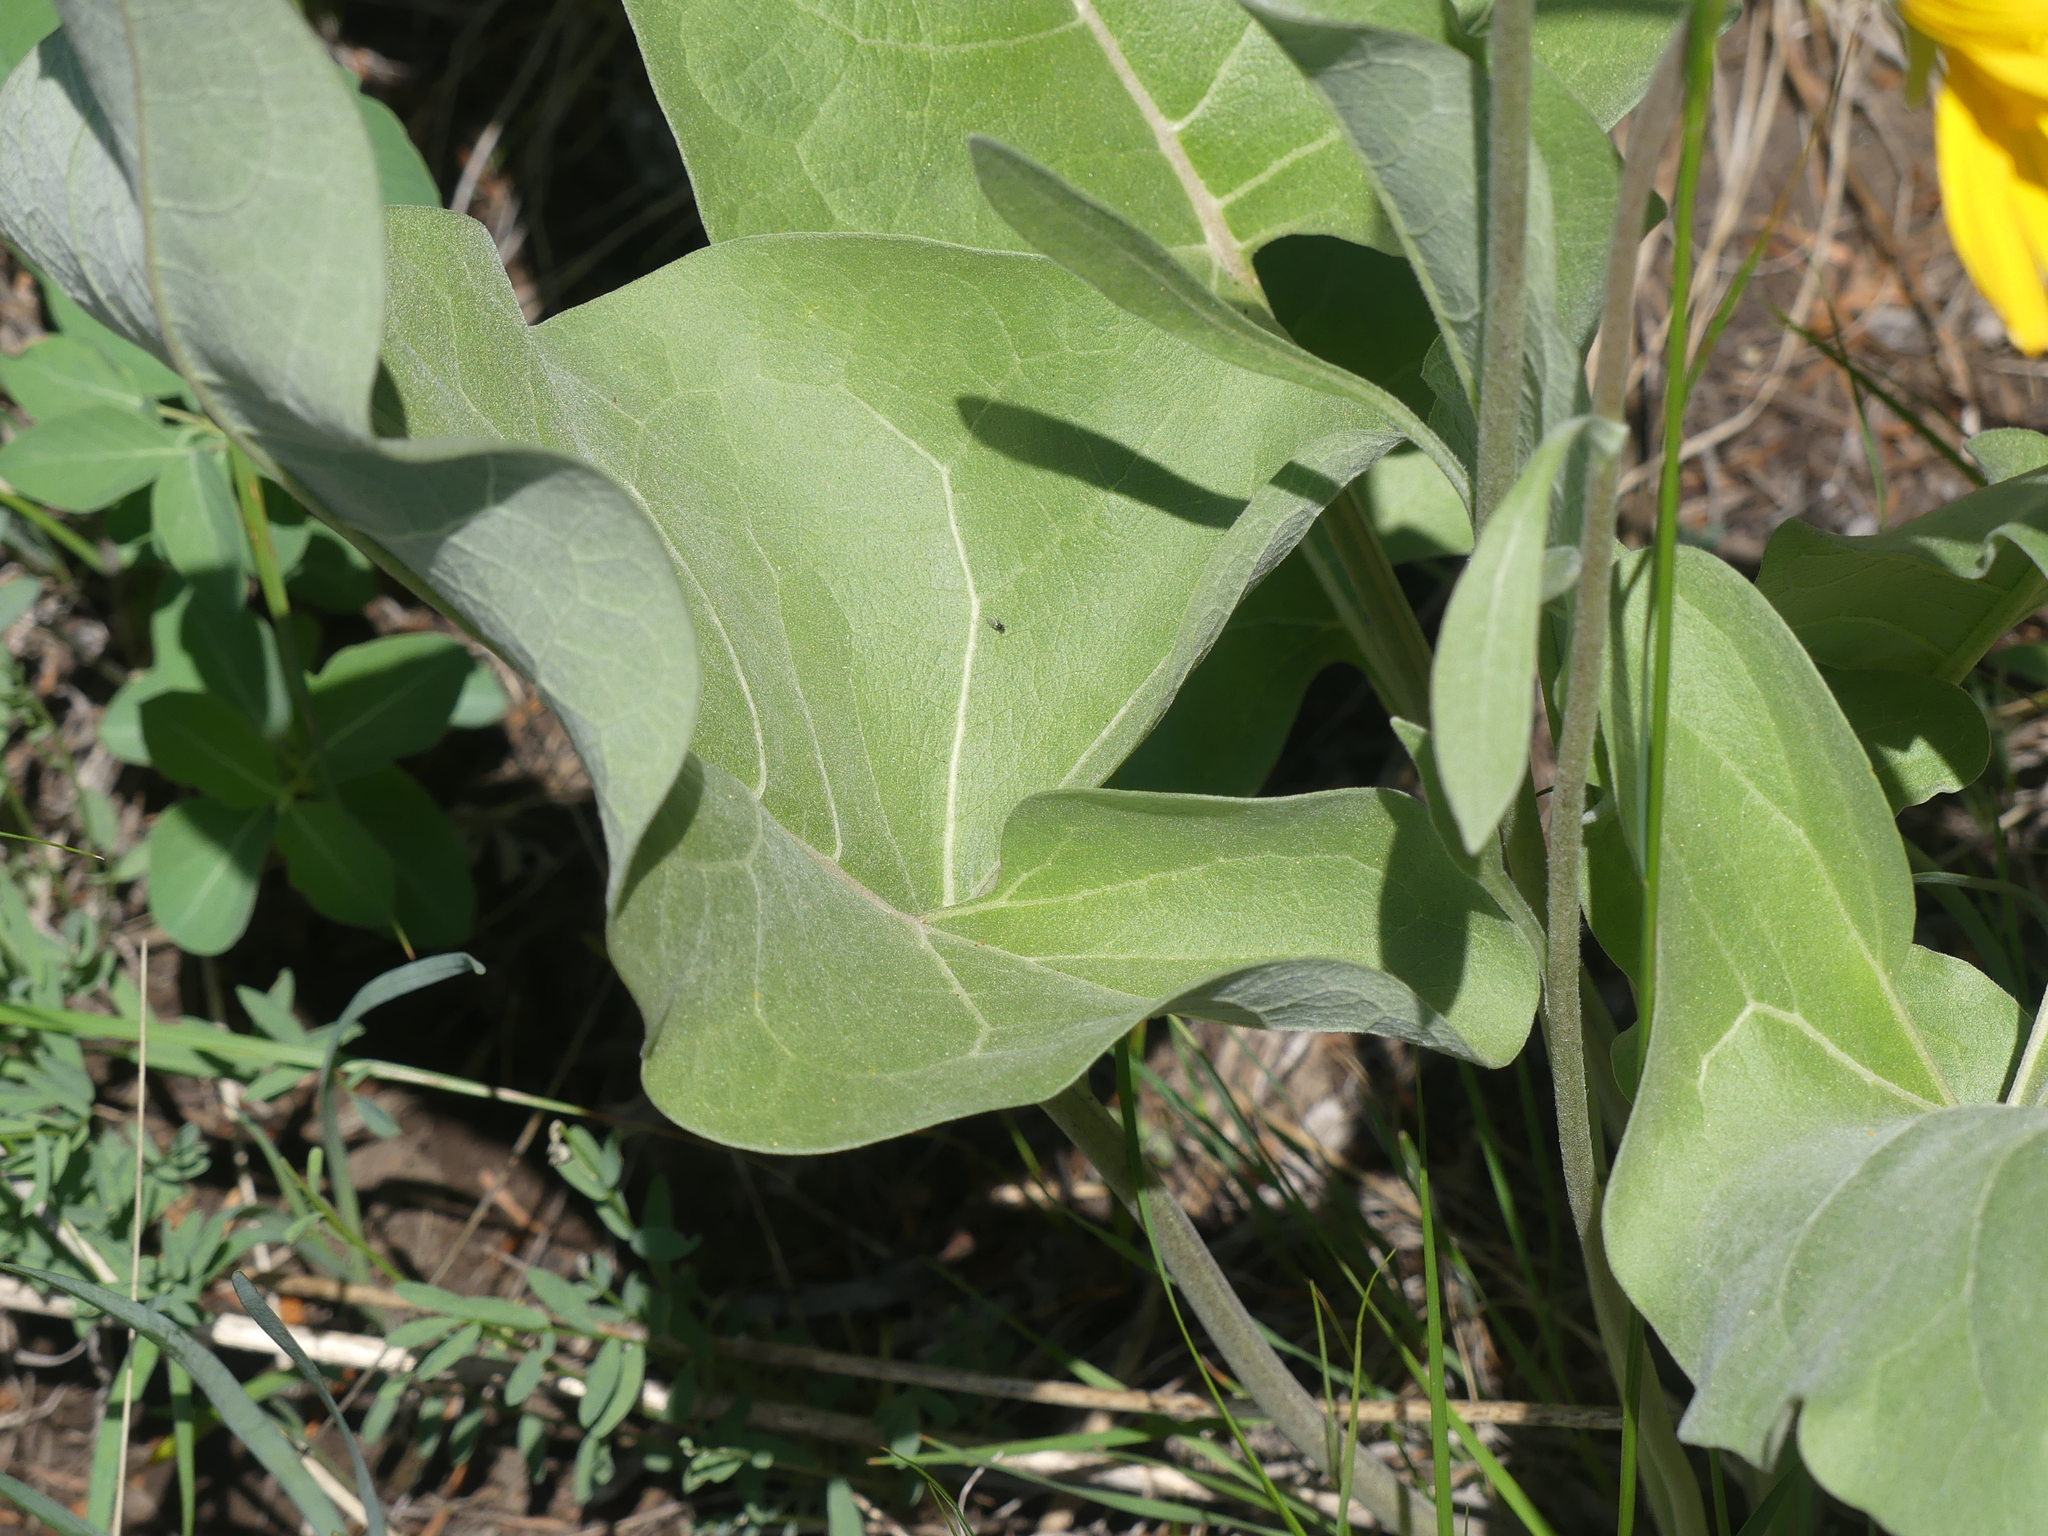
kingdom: Plantae
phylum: Tracheophyta
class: Magnoliopsida
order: Asterales
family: Asteraceae
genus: Wyethia
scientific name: Wyethia sagittata
